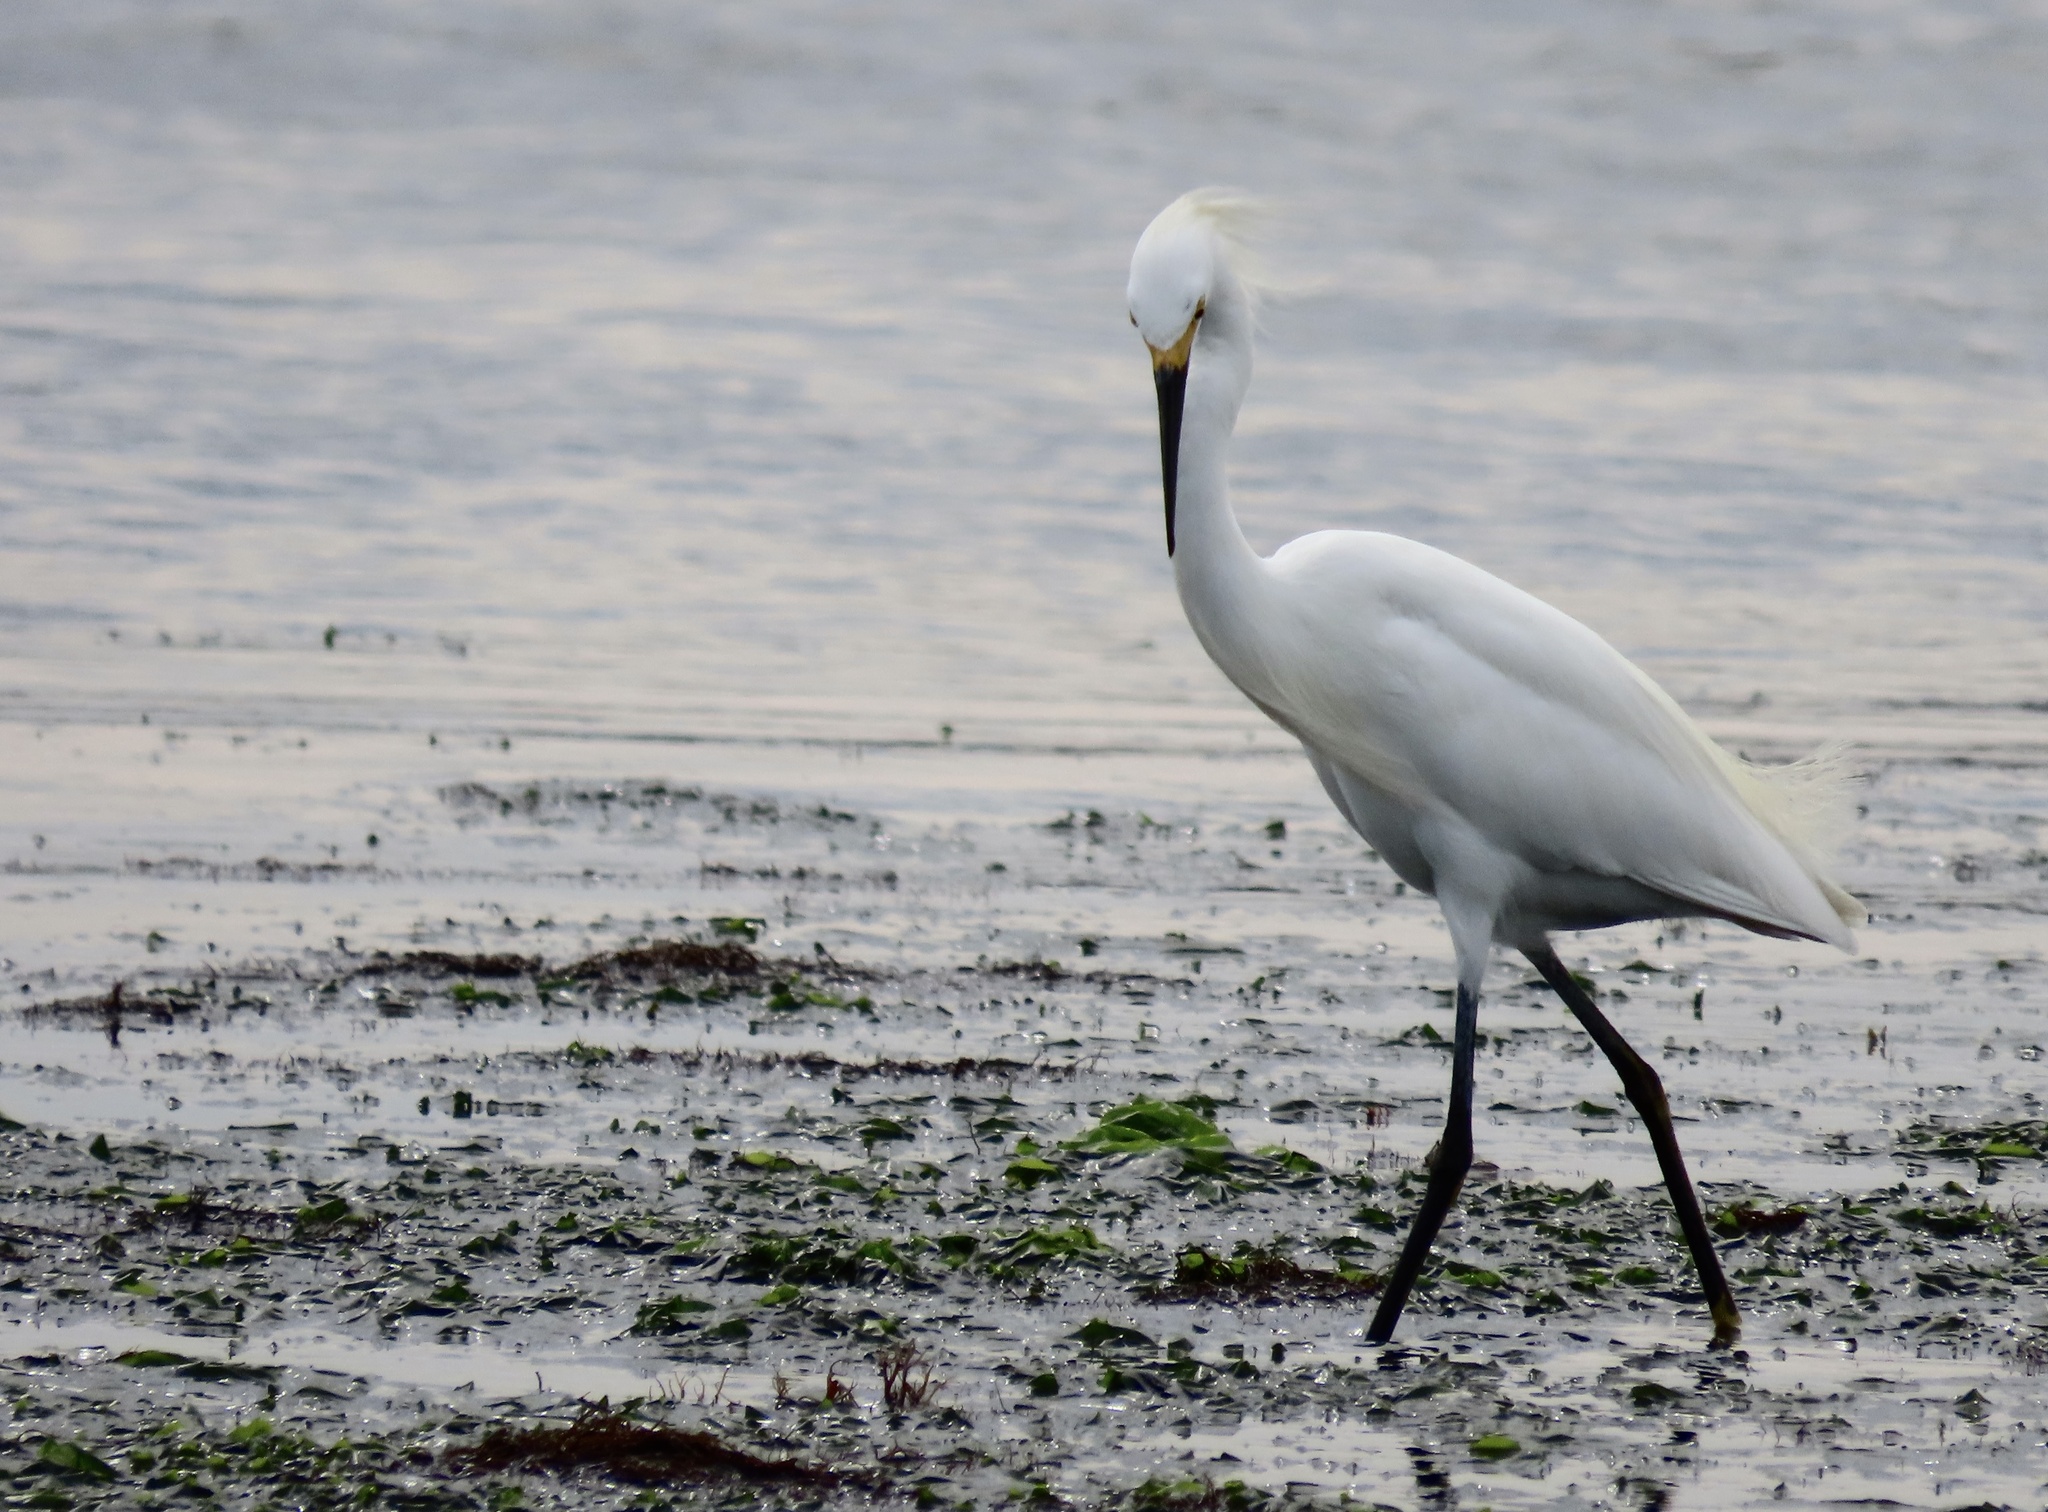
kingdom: Animalia
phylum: Chordata
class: Aves
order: Pelecaniformes
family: Ardeidae
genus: Egretta
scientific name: Egretta thula
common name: Snowy egret
